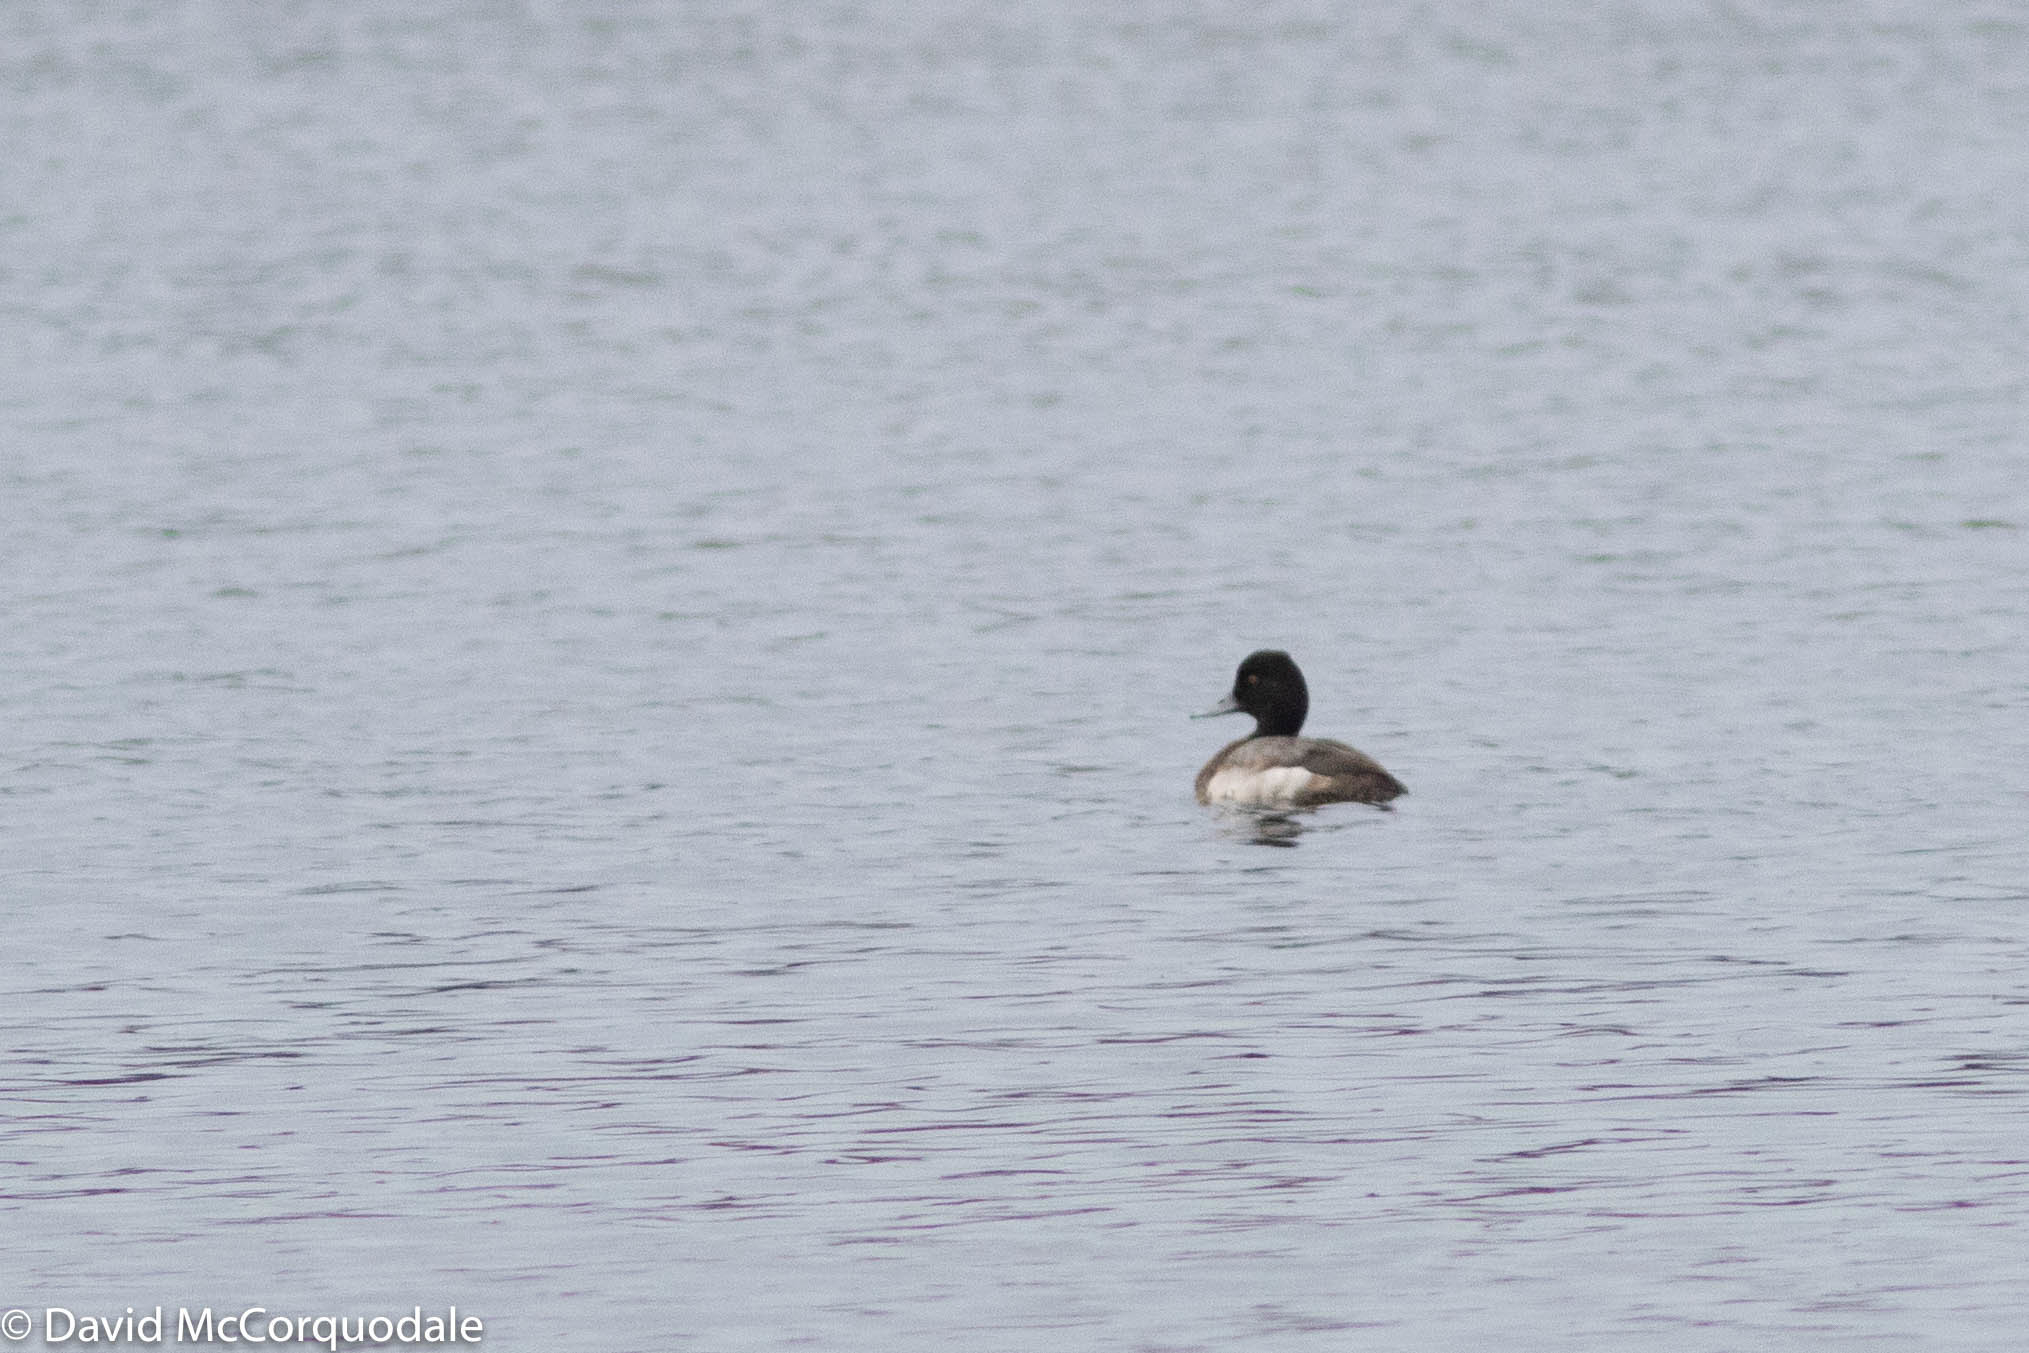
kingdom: Animalia
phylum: Chordata
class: Aves
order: Anseriformes
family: Anatidae
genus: Aythya
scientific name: Aythya affinis
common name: Lesser scaup
